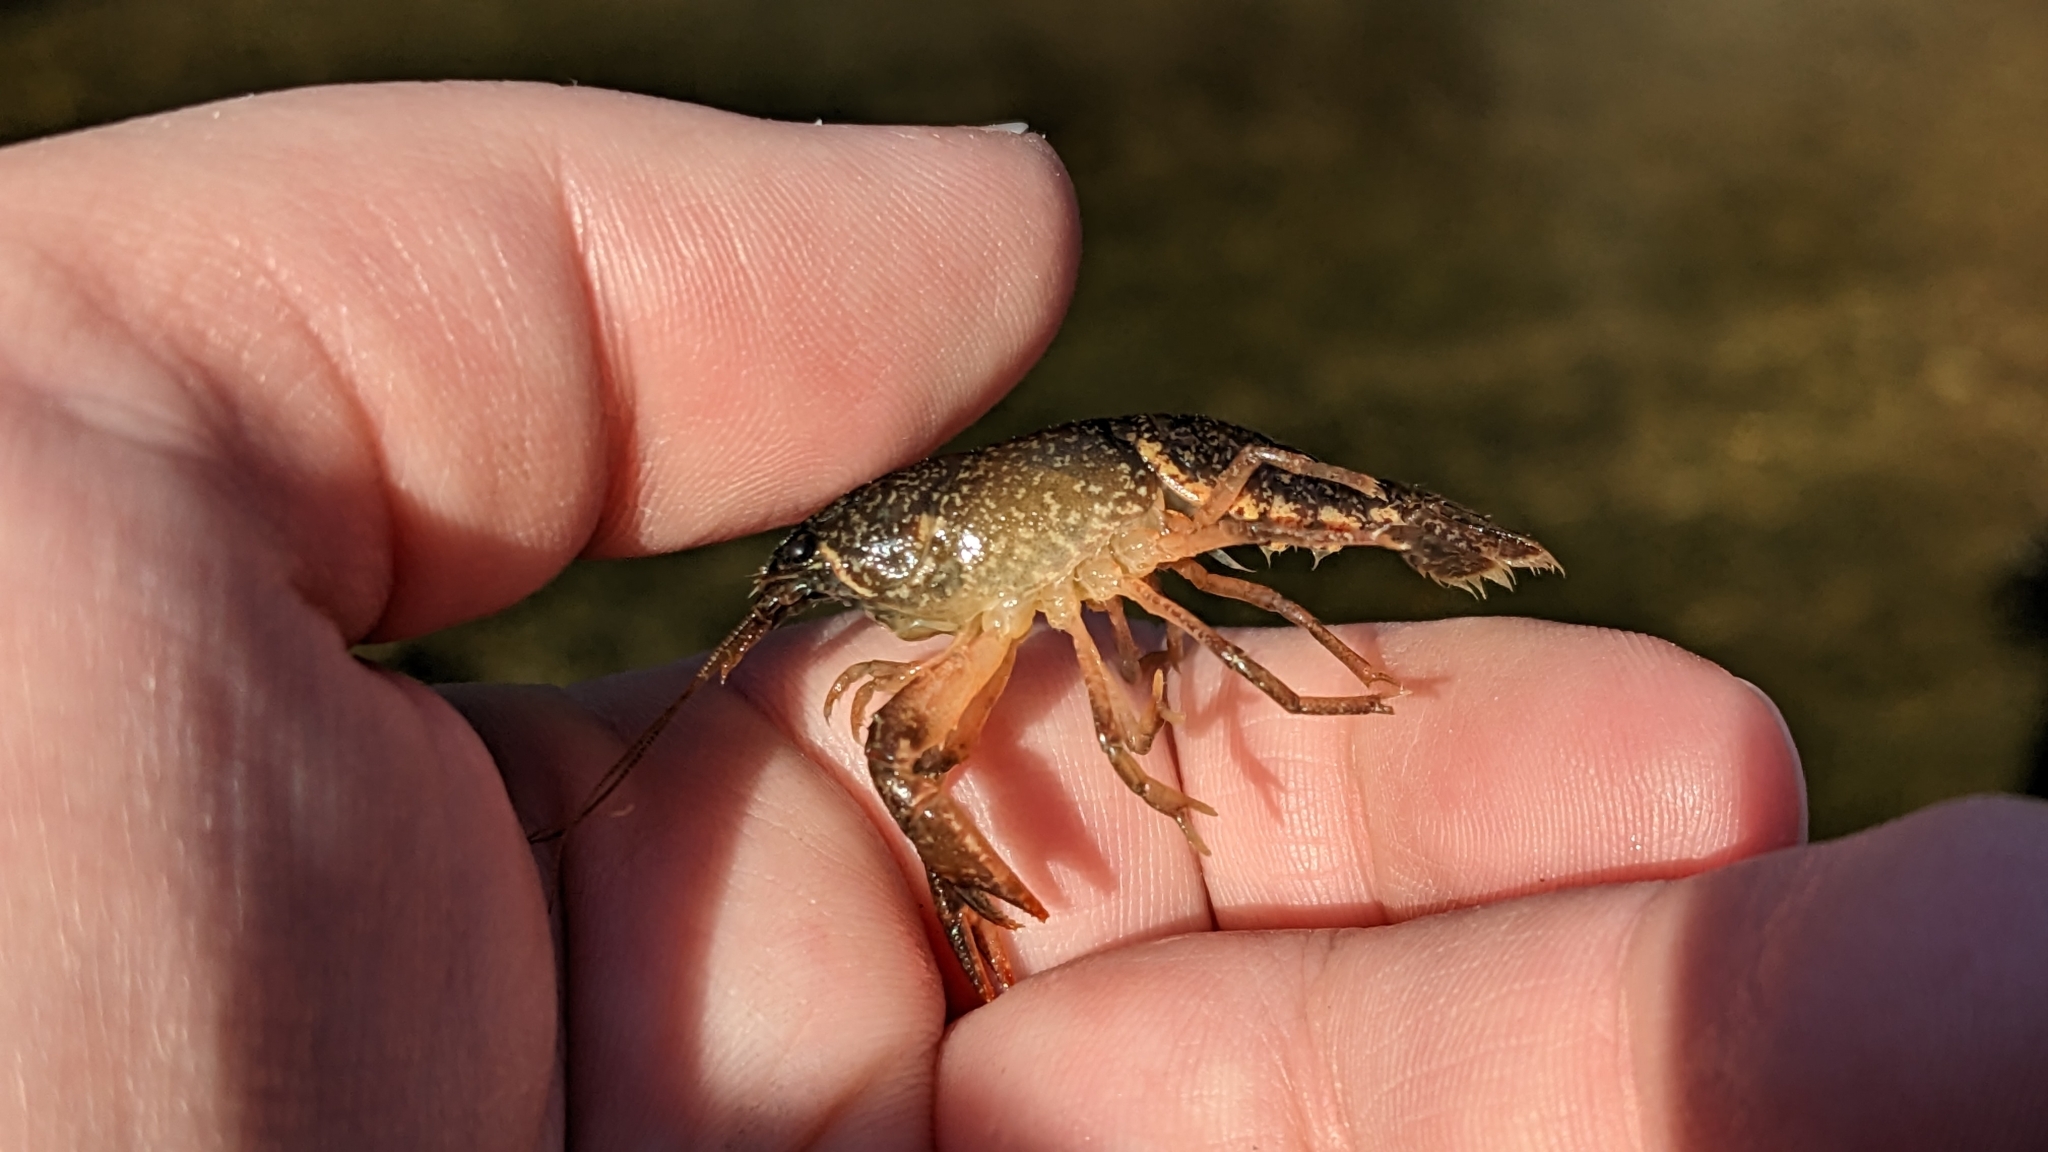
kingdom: Animalia
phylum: Arthropoda
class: Malacostraca
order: Decapoda
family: Cambaridae
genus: Cambarus
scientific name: Cambarus graysoni
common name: Twospot crayfish
